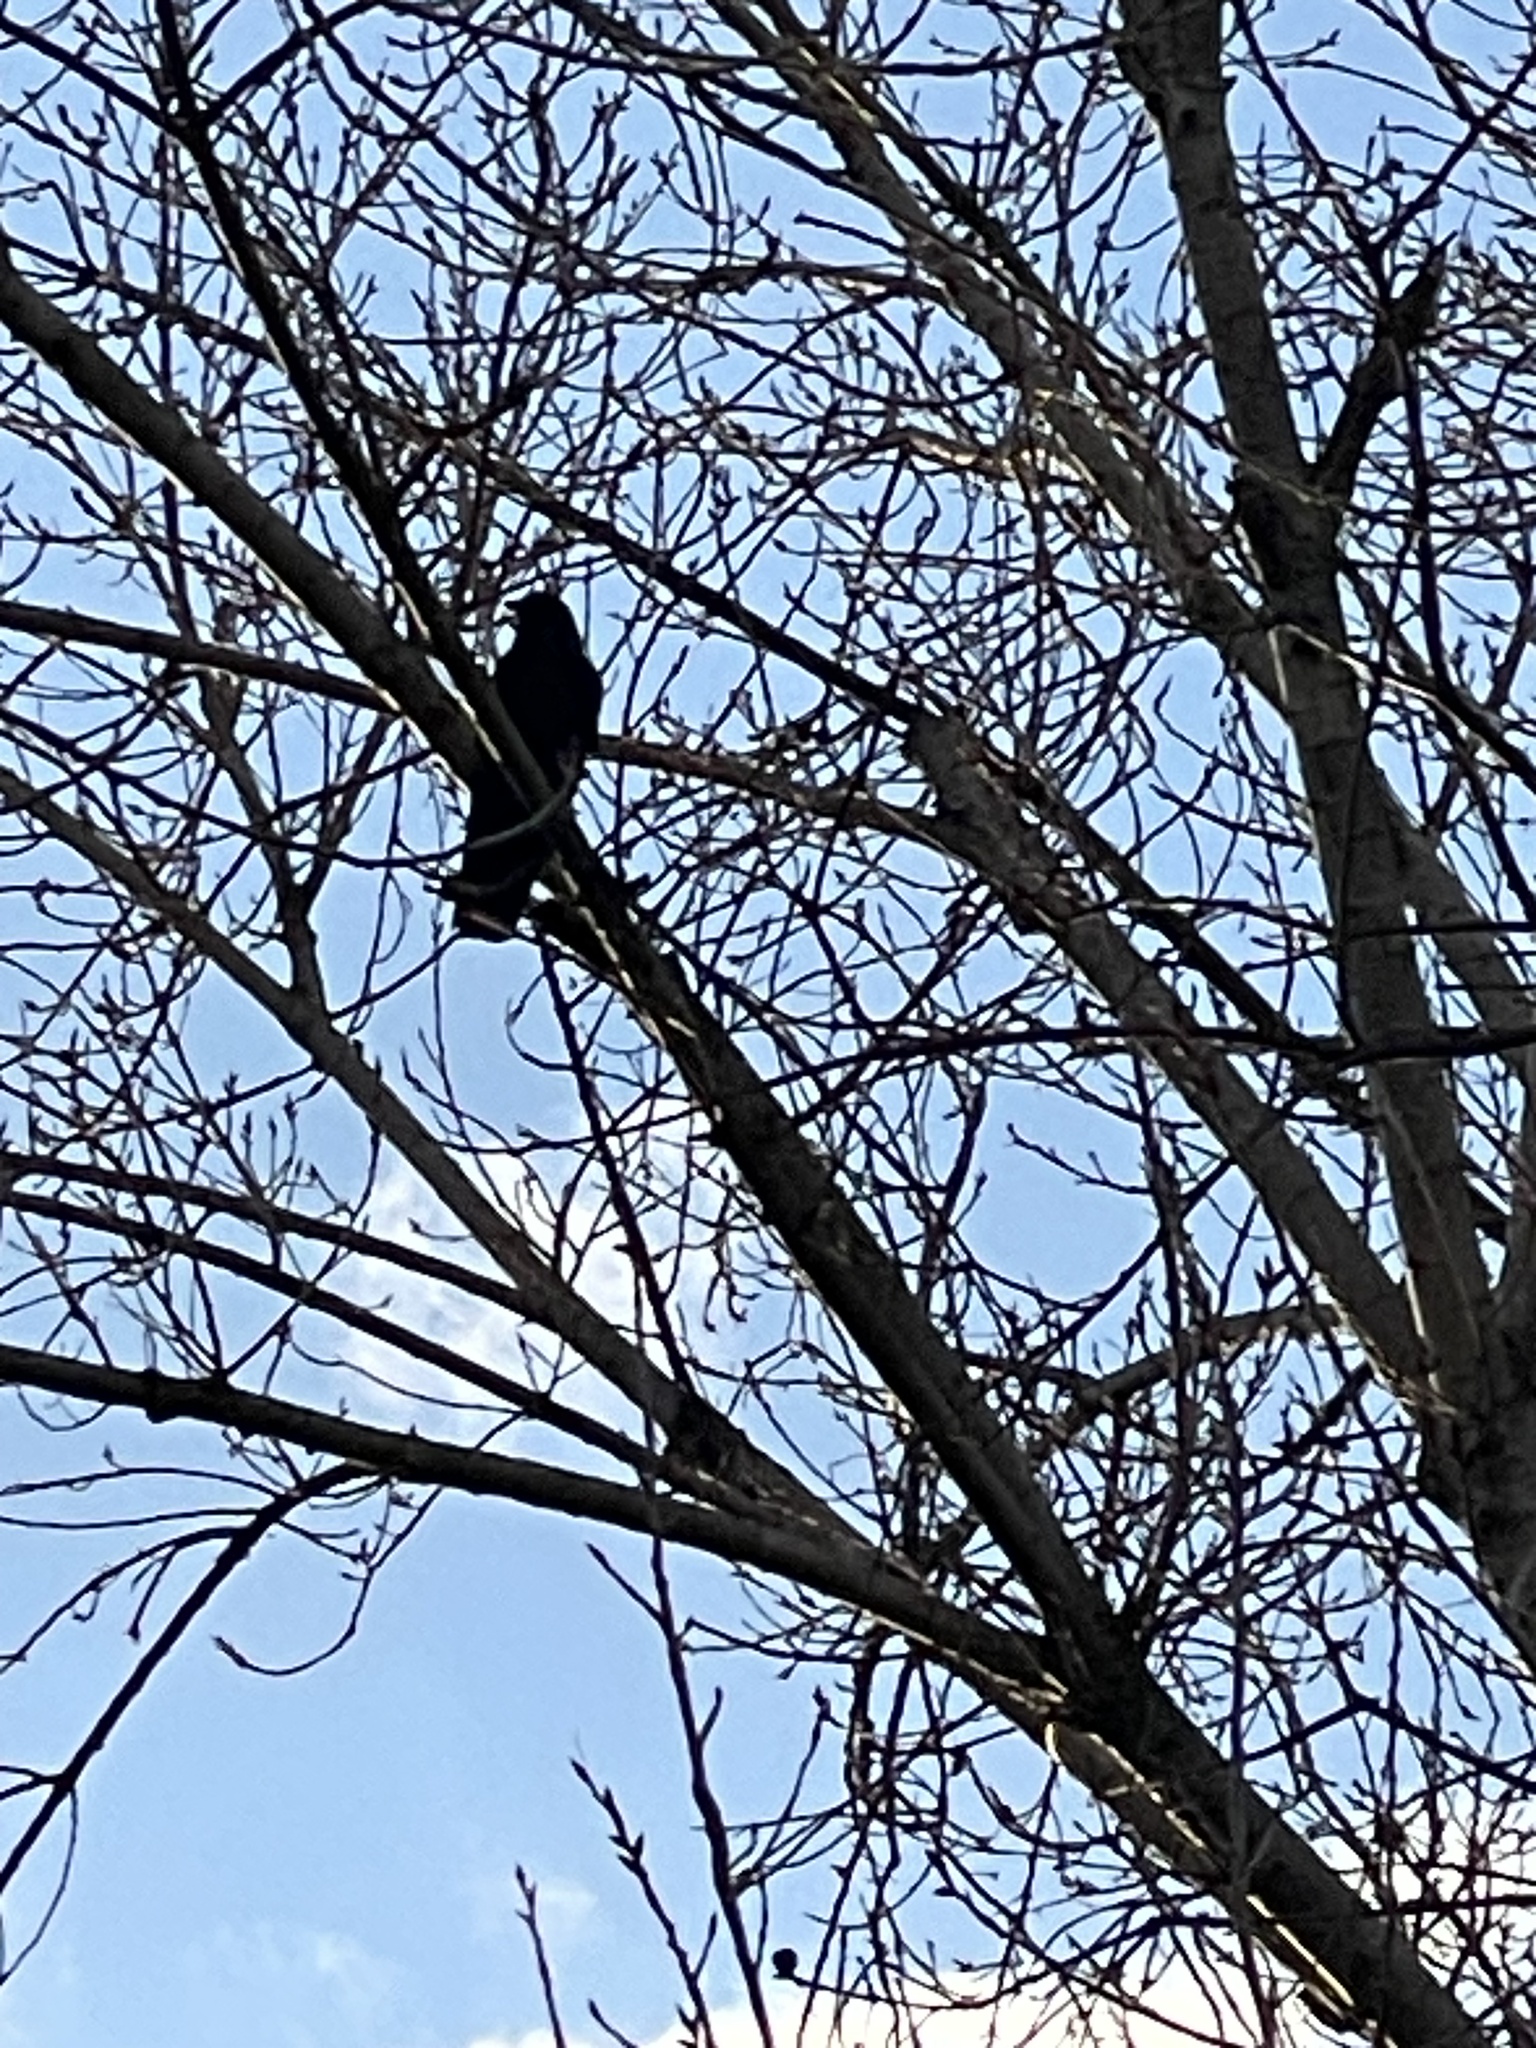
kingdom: Animalia
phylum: Chordata
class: Aves
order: Passeriformes
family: Corvidae
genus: Corvus
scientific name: Corvus brachyrhynchos
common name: American crow
